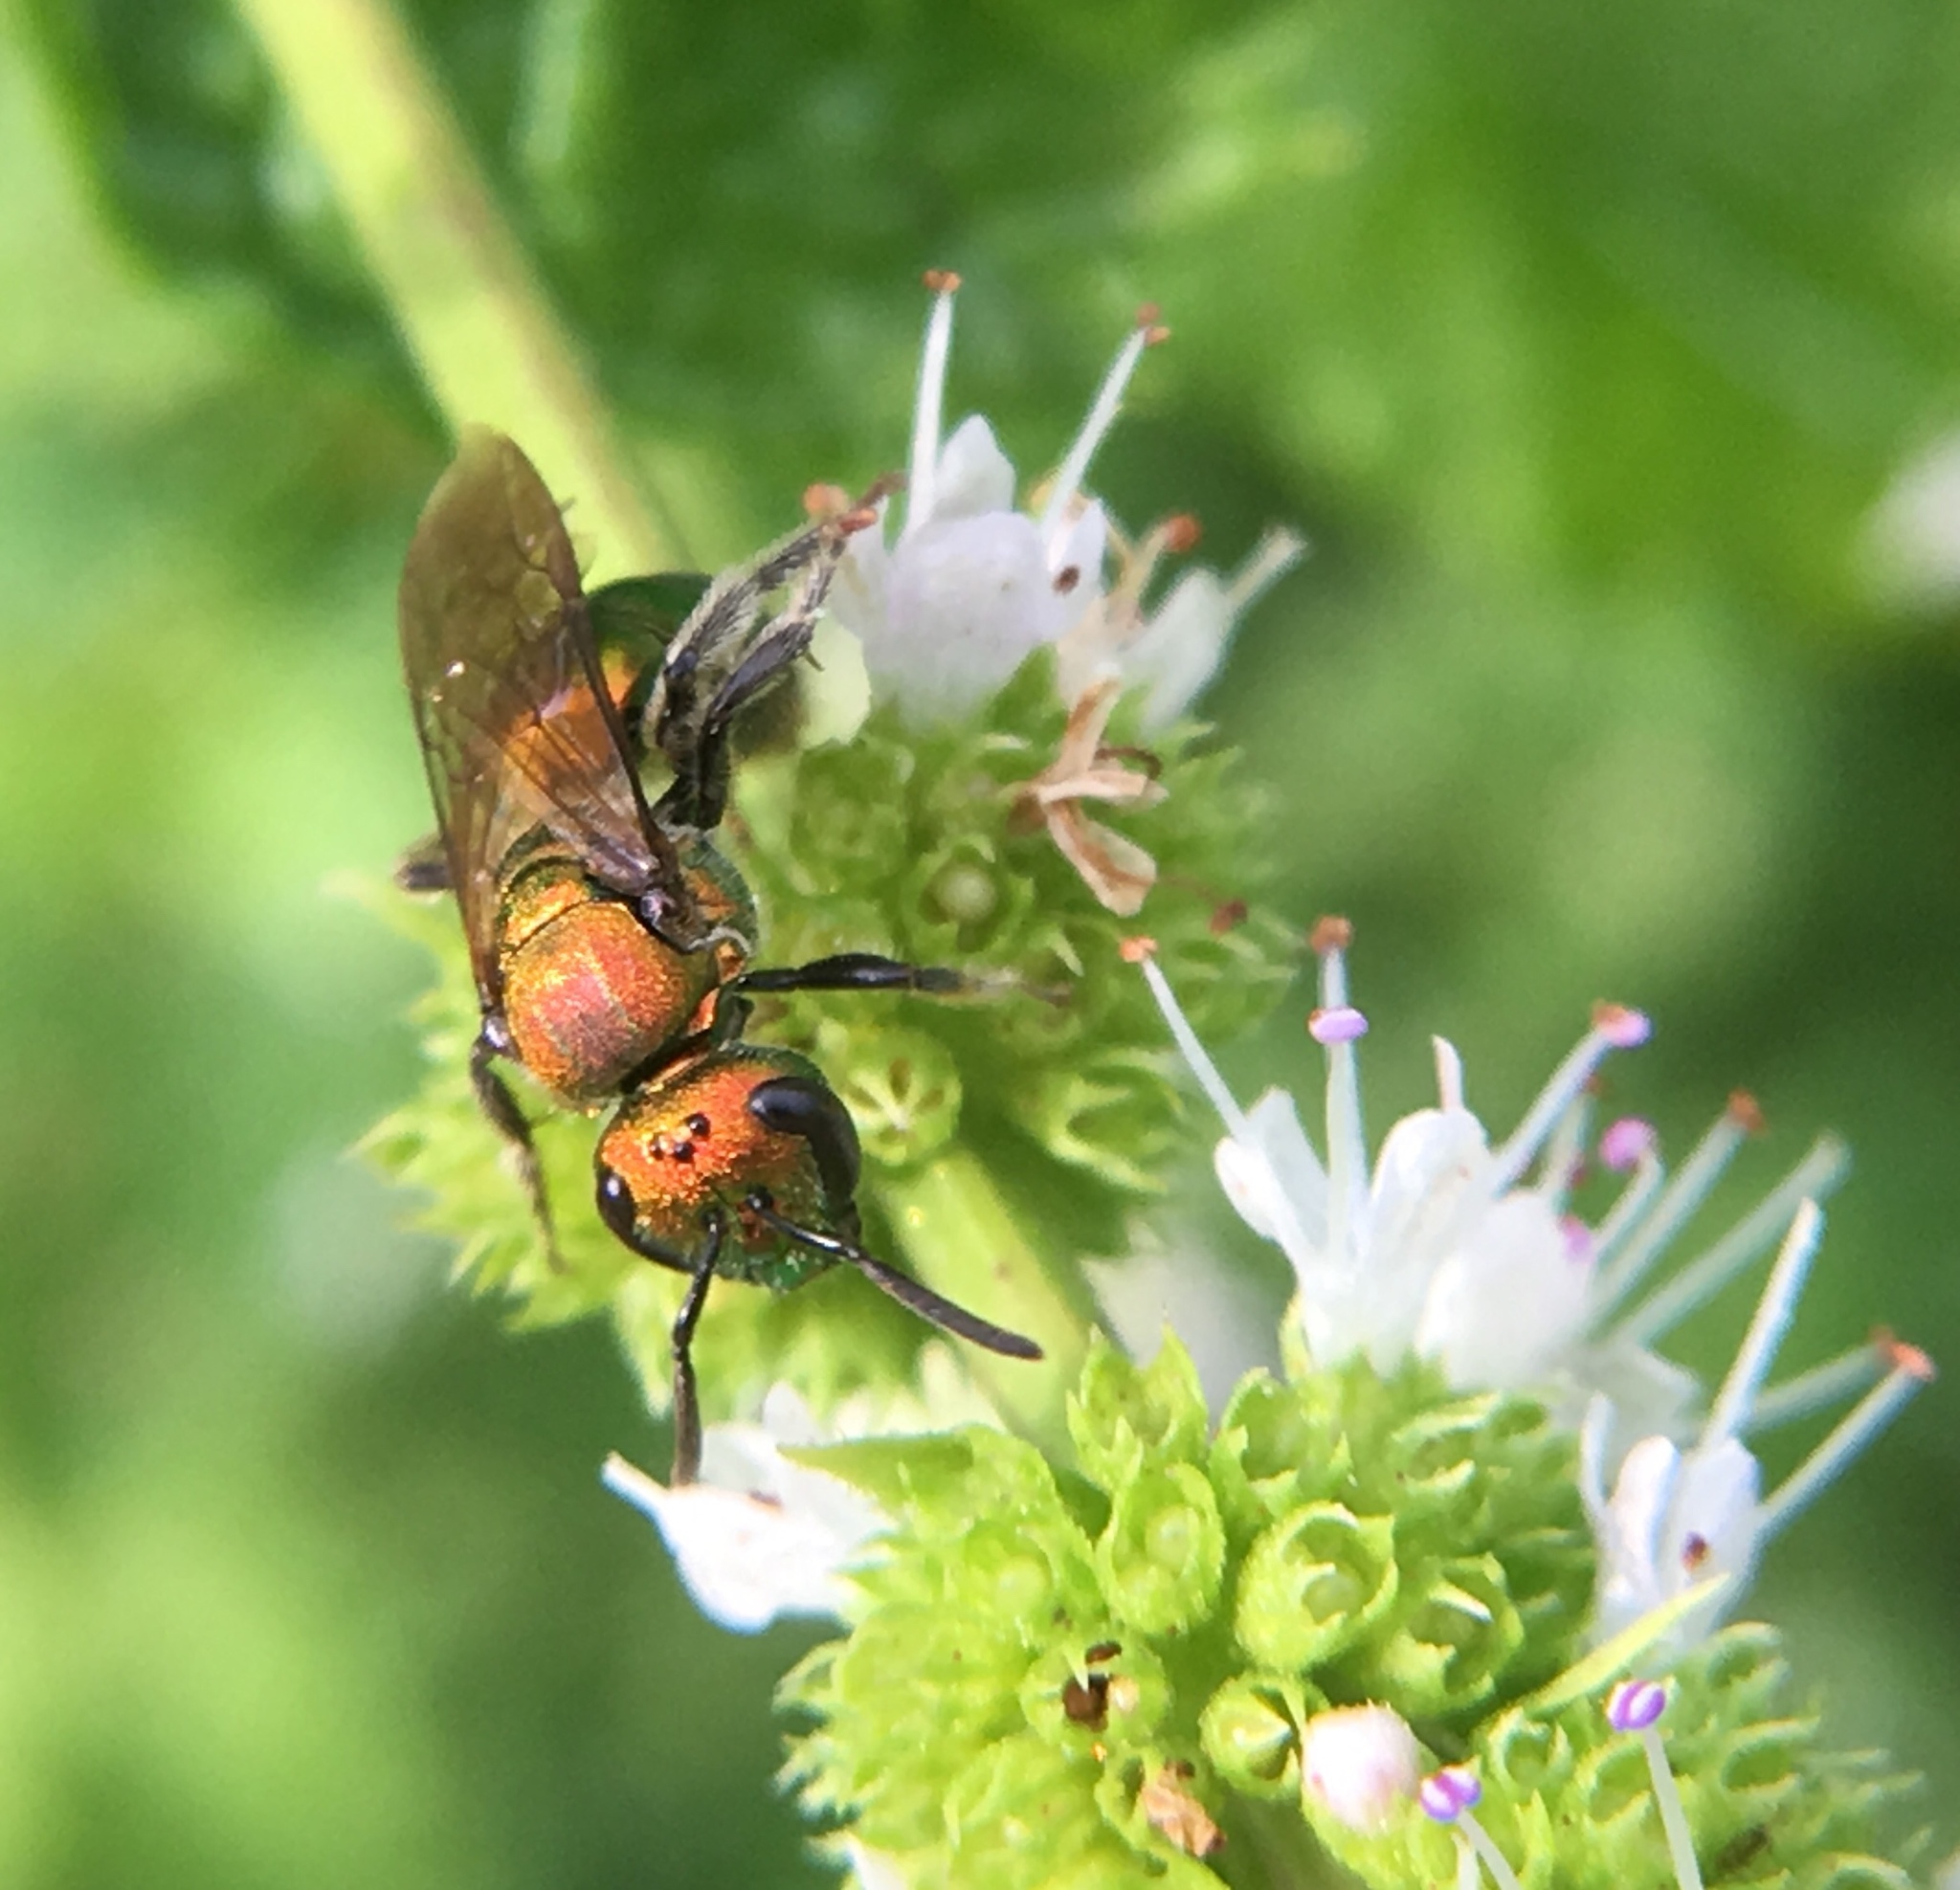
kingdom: Animalia
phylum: Arthropoda
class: Insecta
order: Hymenoptera
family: Halictidae
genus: Augochlora
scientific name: Augochlora pura
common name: Pure green sweat bee
